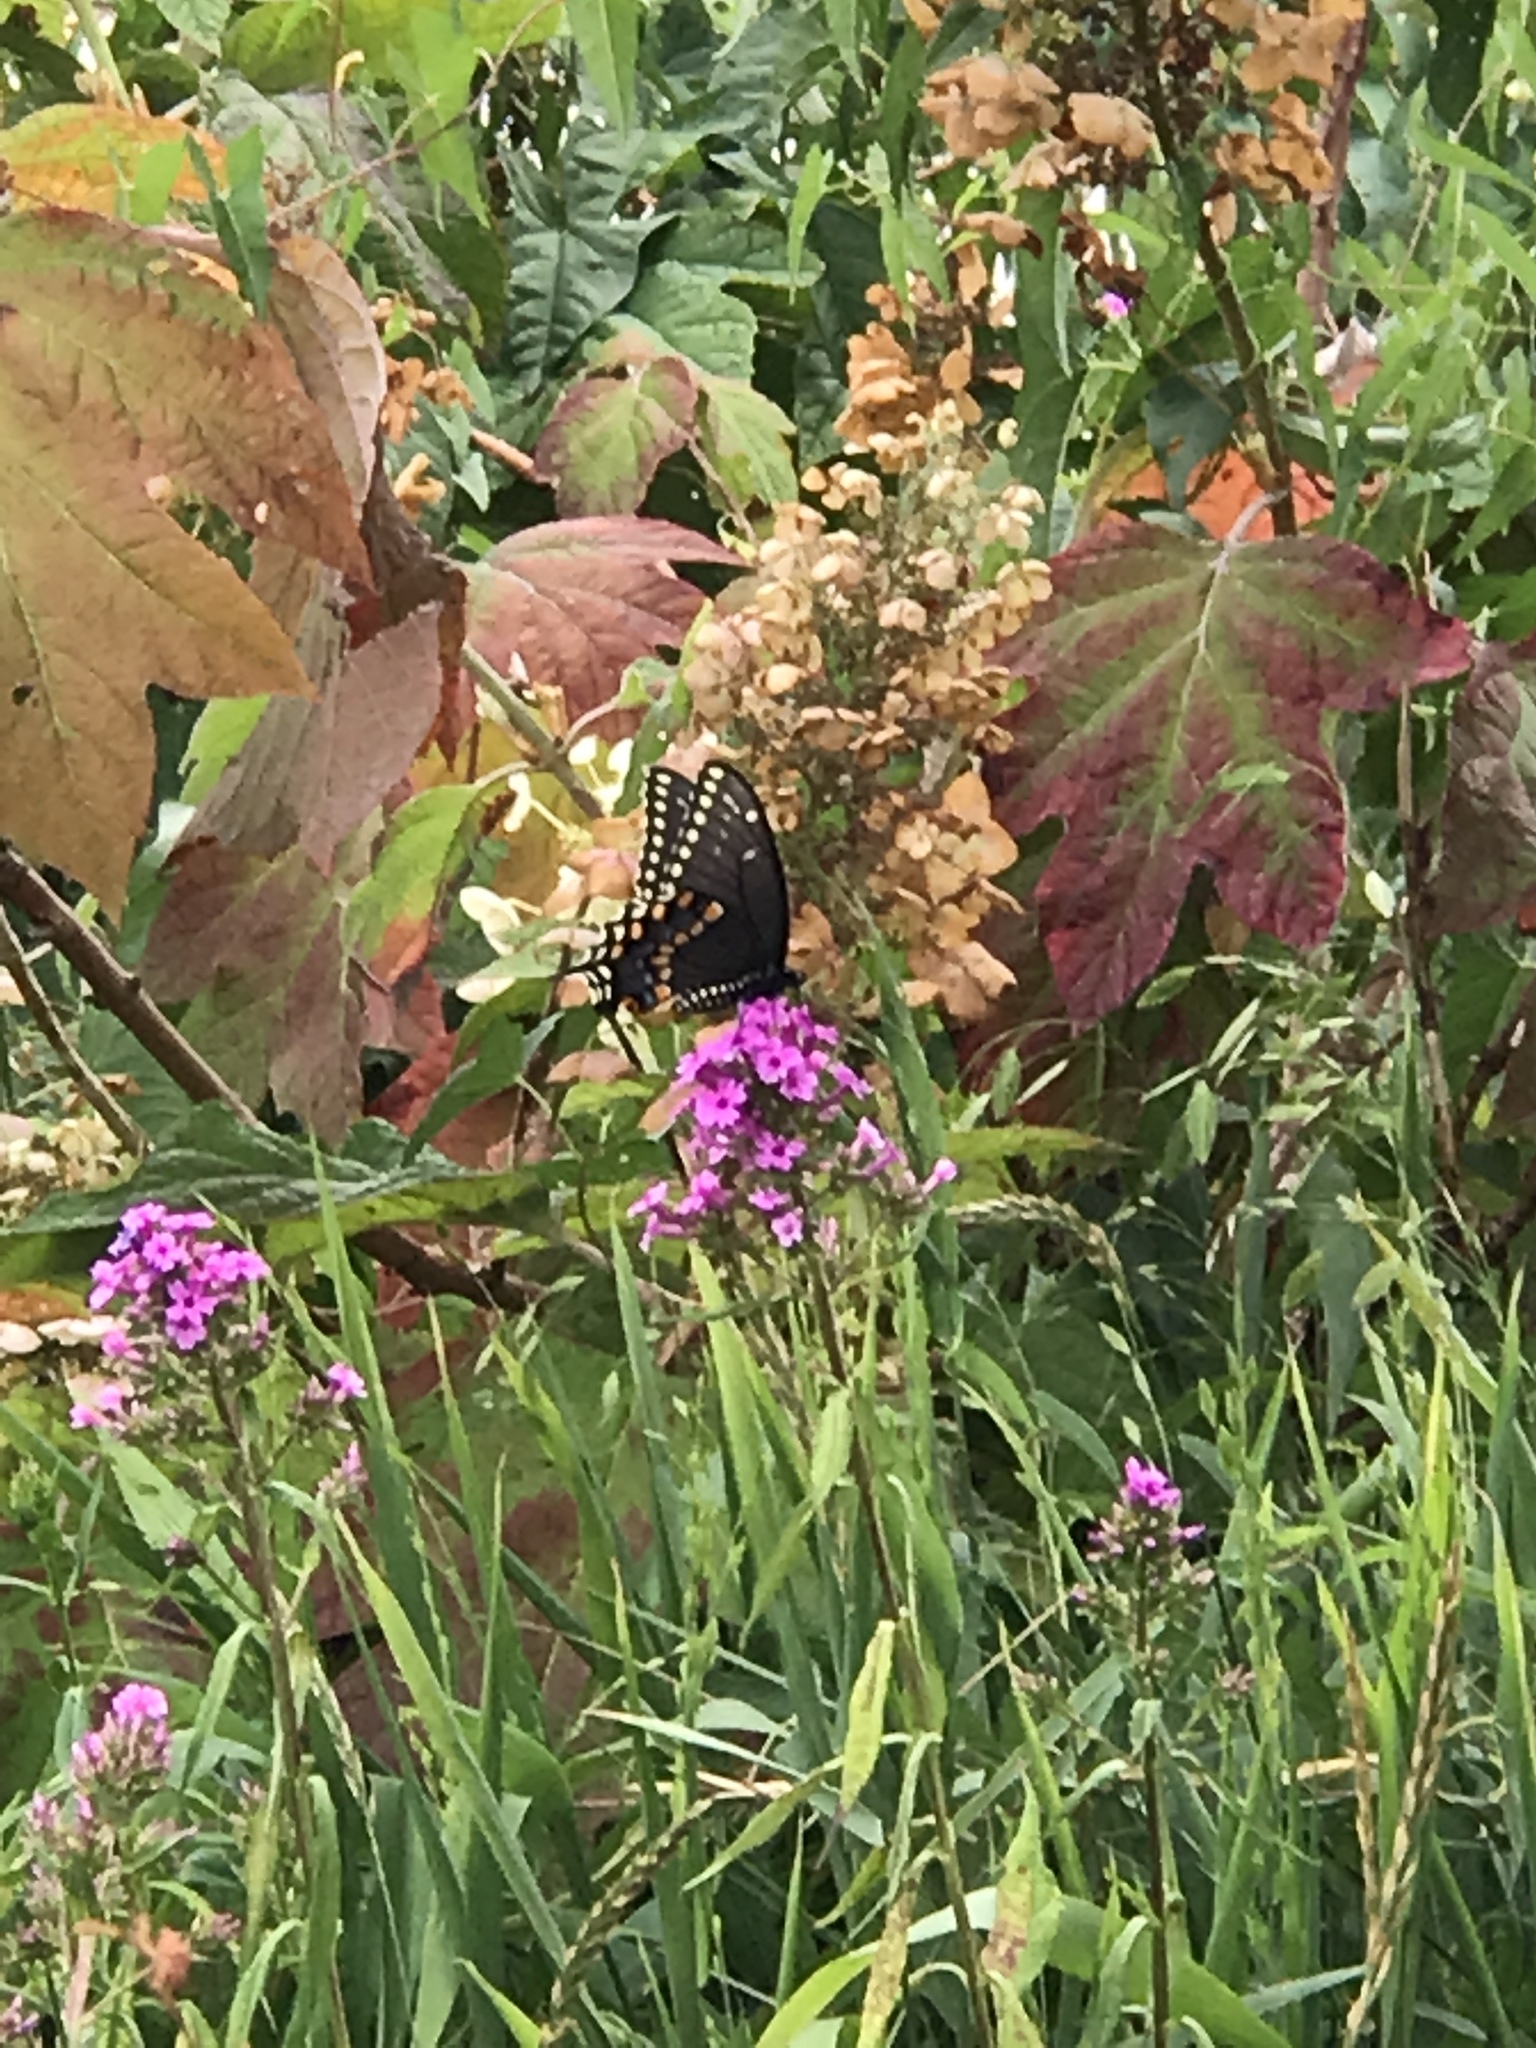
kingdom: Animalia
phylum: Arthropoda
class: Insecta
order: Lepidoptera
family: Papilionidae
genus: Papilio
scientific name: Papilio polyxenes
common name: Black swallowtail
